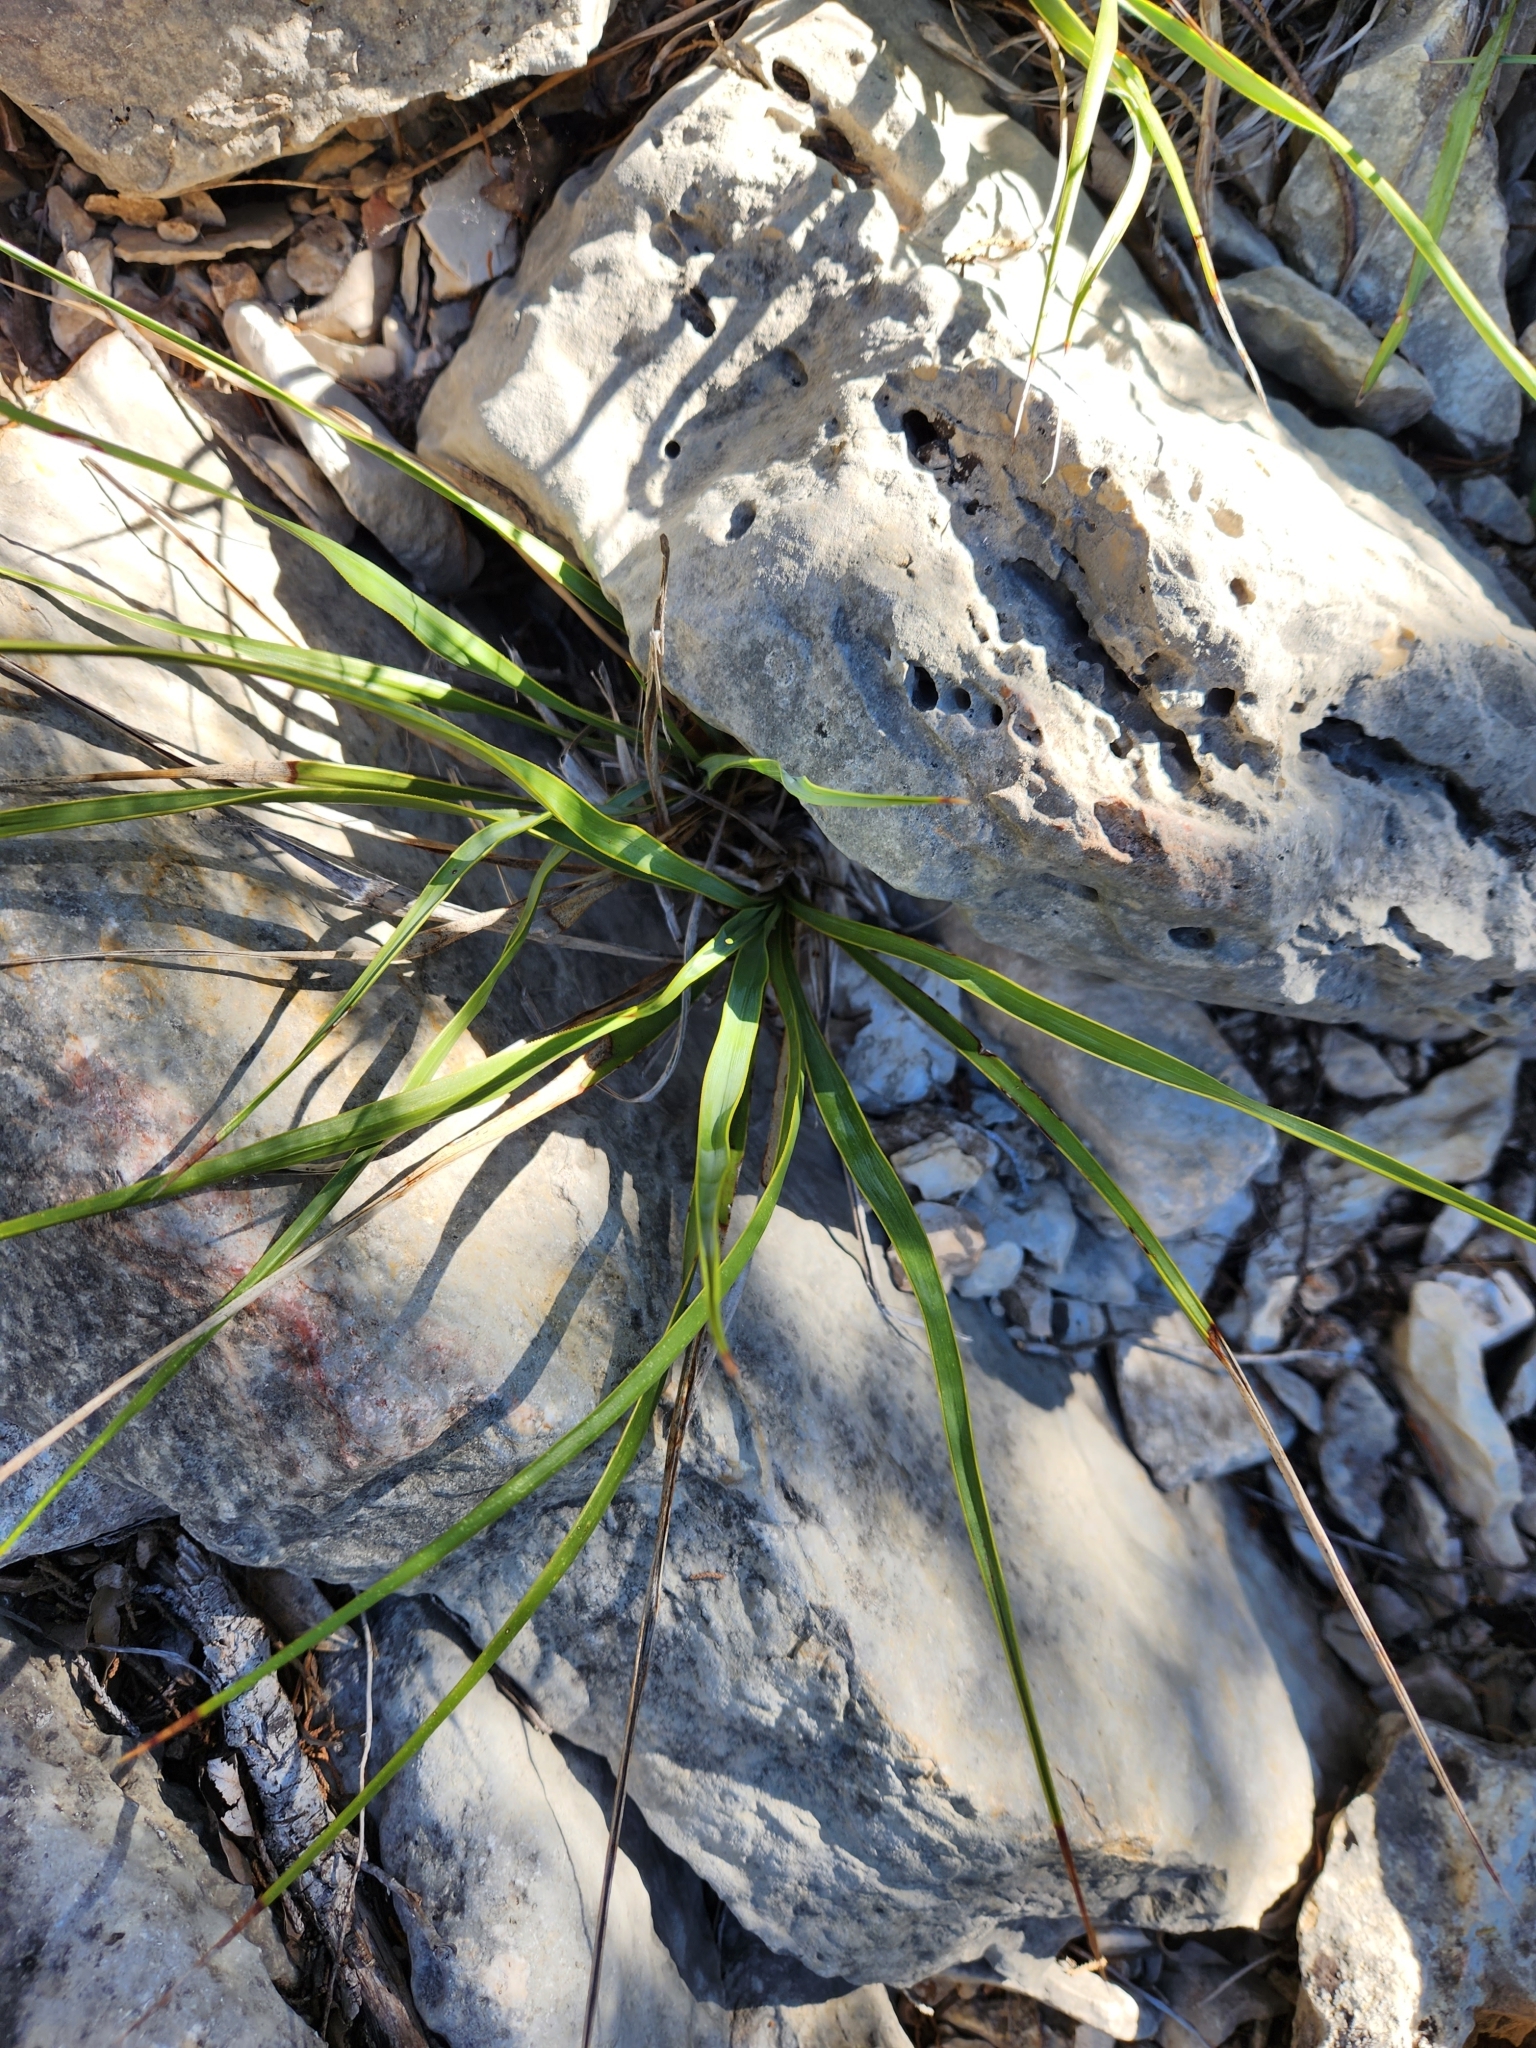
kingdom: Plantae
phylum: Tracheophyta
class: Liliopsida
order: Asparagales
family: Asparagaceae
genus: Yucca
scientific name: Yucca rupicola
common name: Twisted-leaf spanish-dagger
